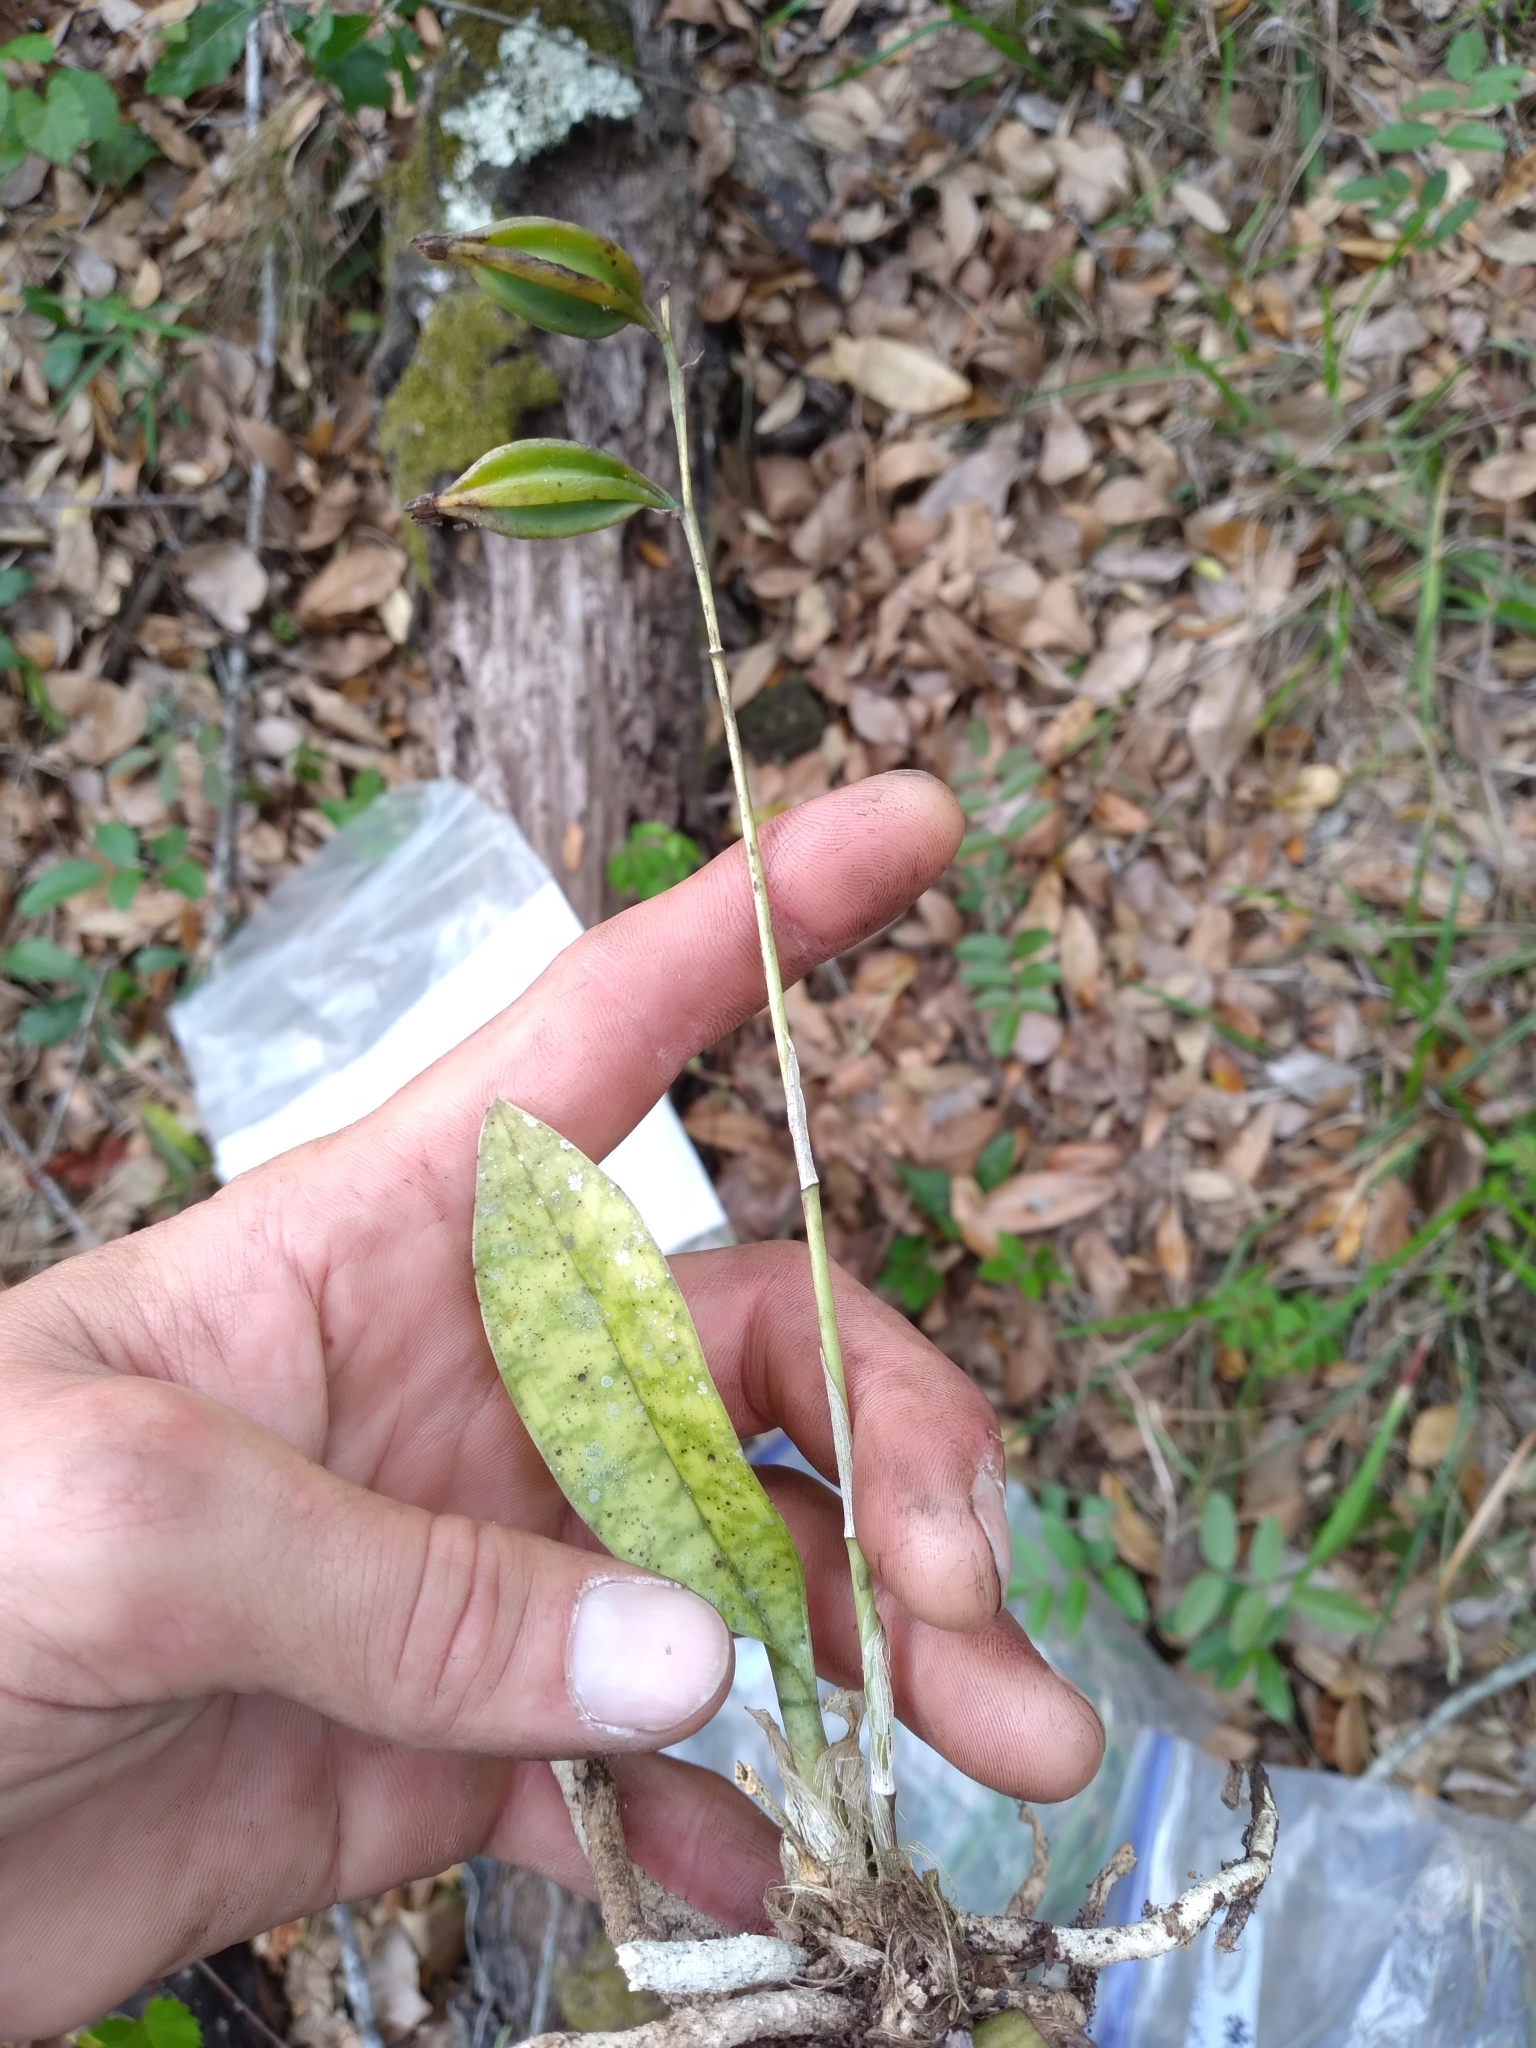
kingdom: Plantae
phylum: Tracheophyta
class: Liliopsida
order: Asparagales
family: Orchidaceae
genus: Eulophia
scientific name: Eulophia maculata
